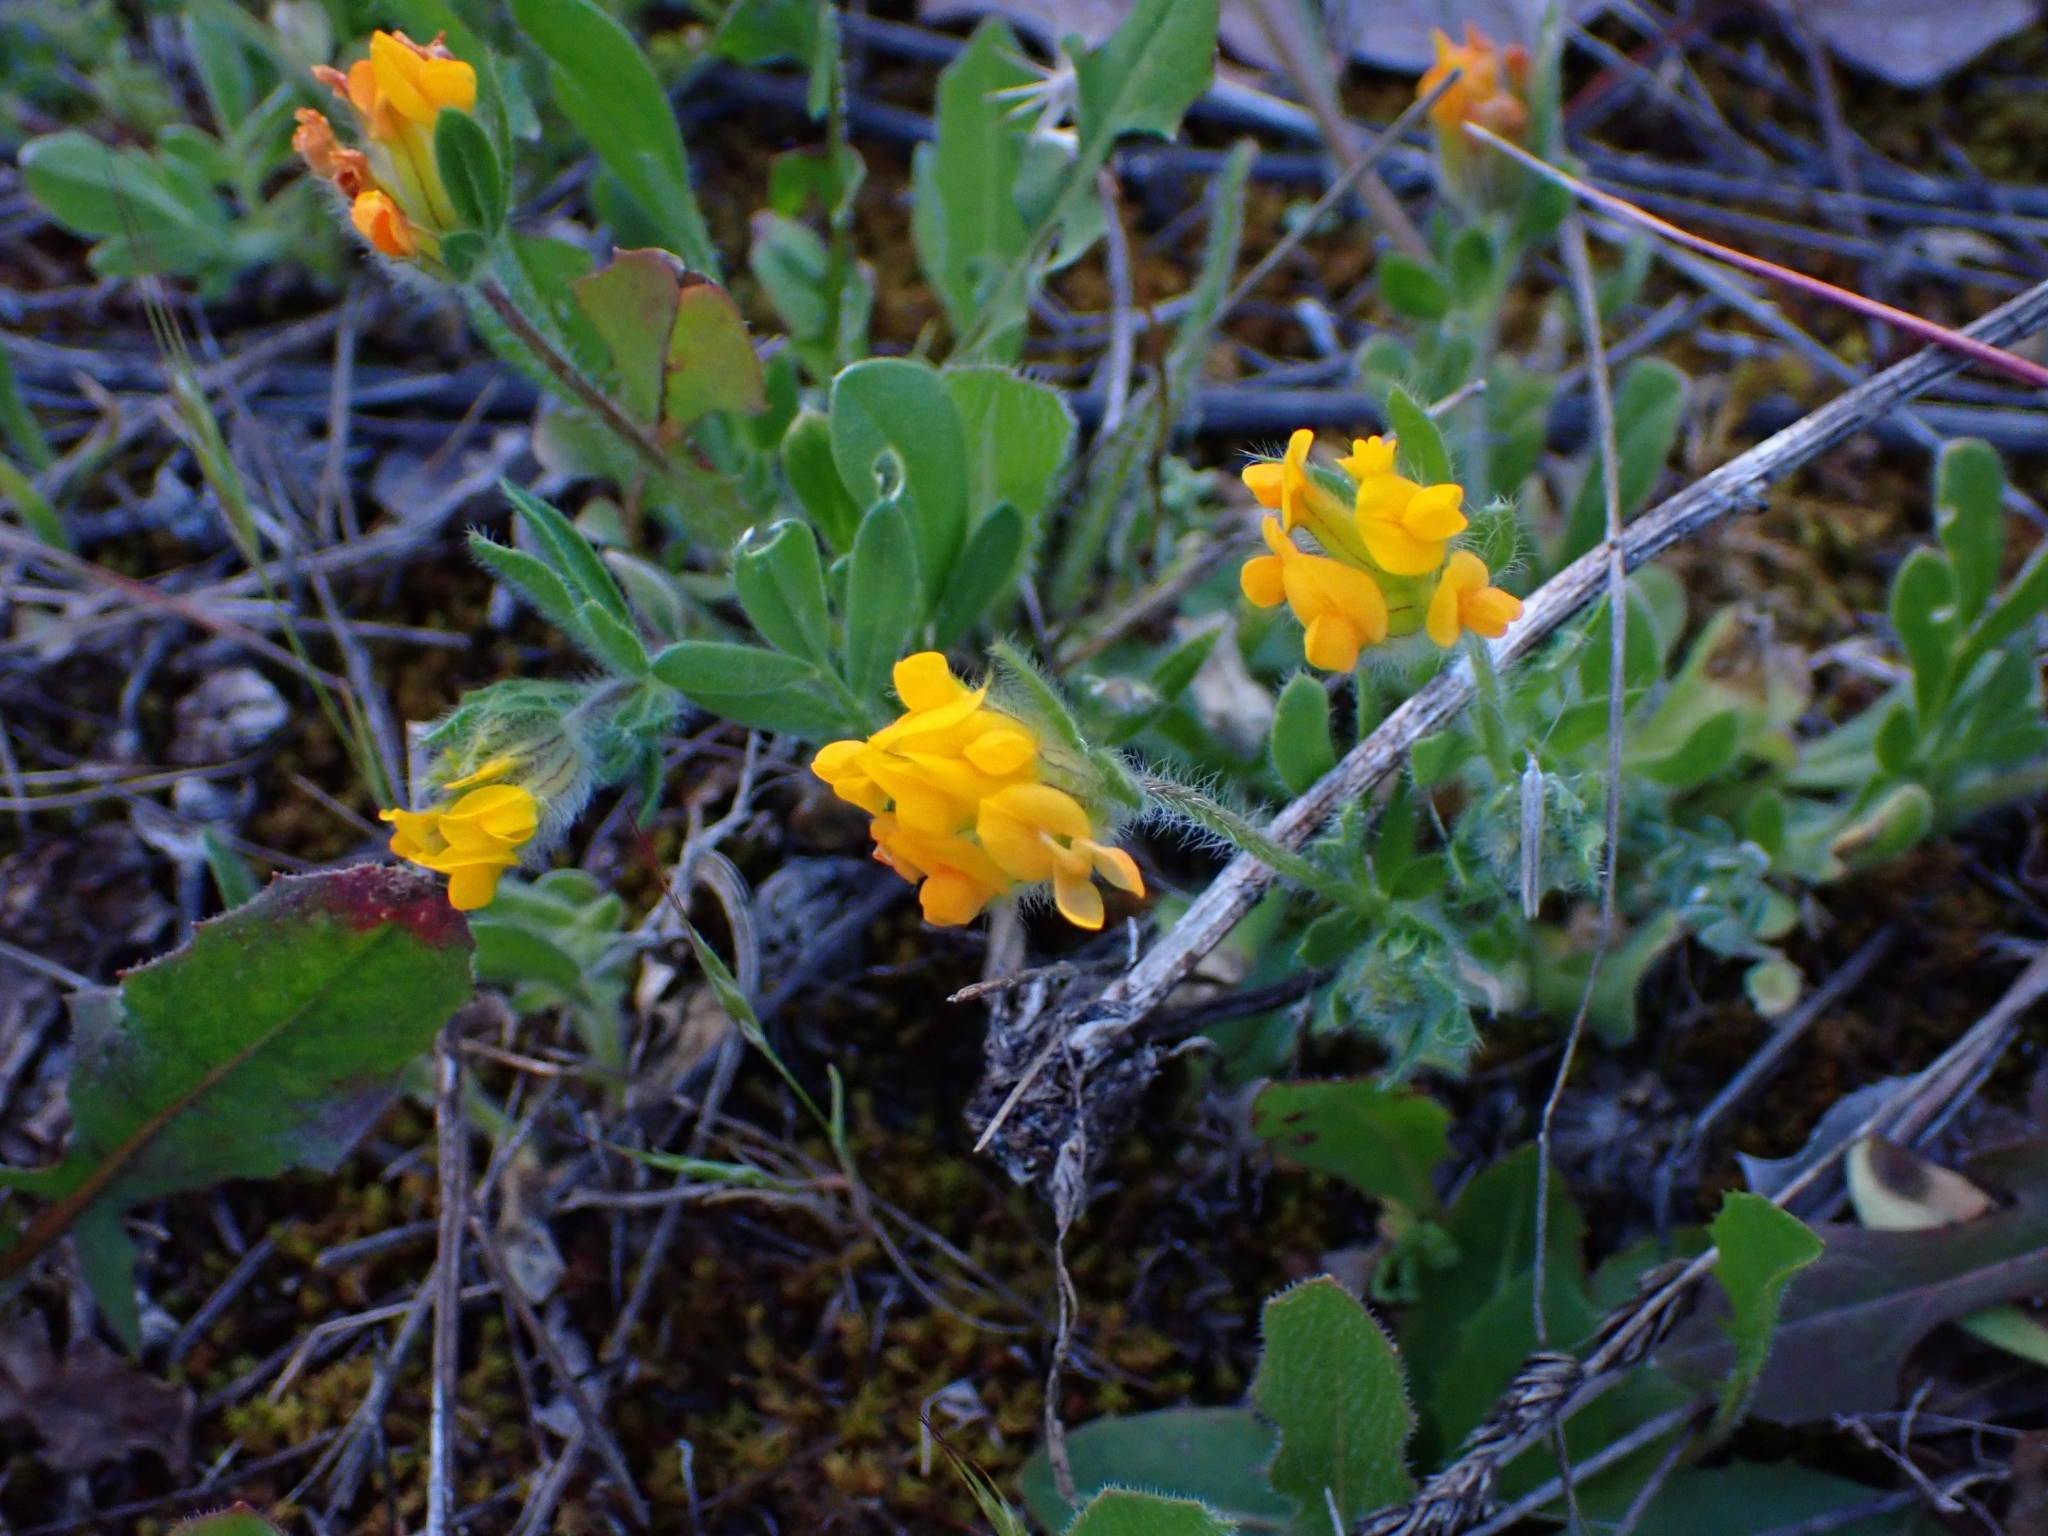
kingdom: Plantae
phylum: Tracheophyta
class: Magnoliopsida
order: Fabales
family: Fabaceae
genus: Anthyllis
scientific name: Anthyllis lotoides
